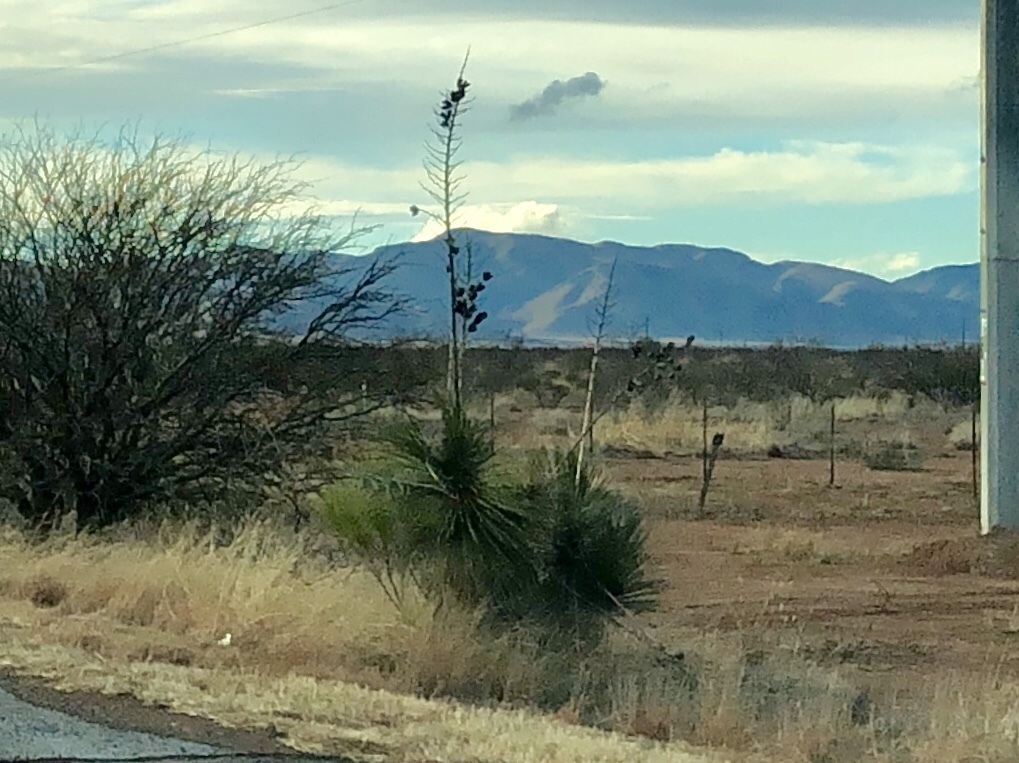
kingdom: Plantae
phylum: Tracheophyta
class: Liliopsida
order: Asparagales
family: Asparagaceae
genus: Yucca
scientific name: Yucca elata
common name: Palmella
